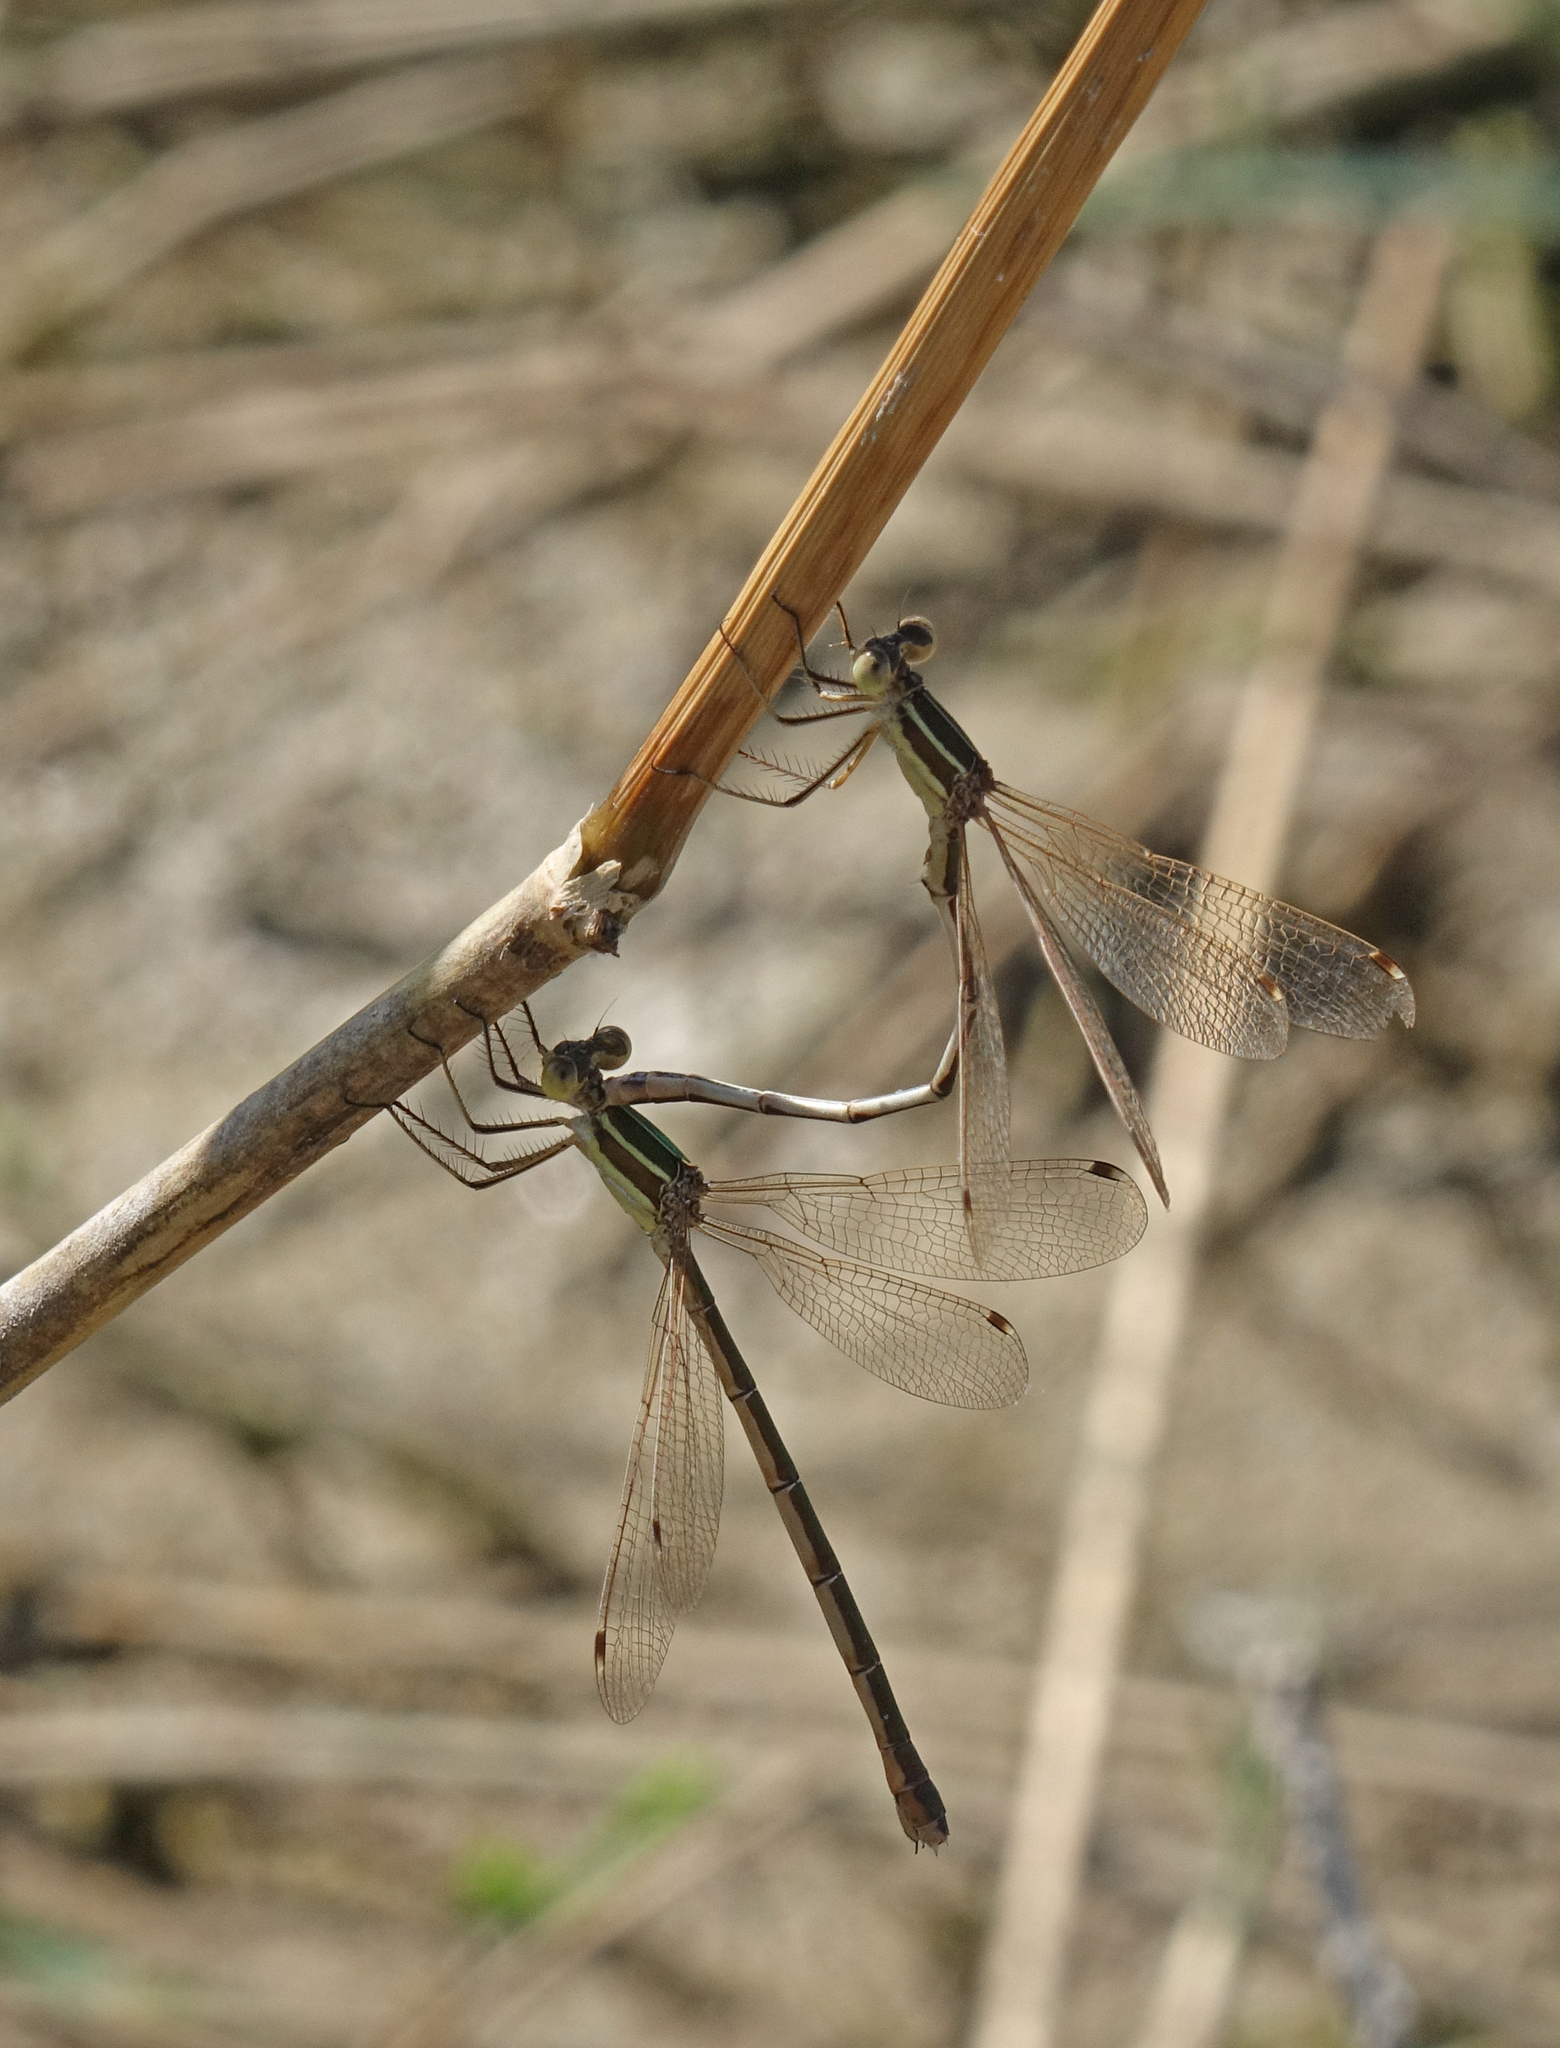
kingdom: Animalia
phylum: Arthropoda
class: Insecta
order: Odonata
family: Lestidae
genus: Lestes
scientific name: Lestes barbarus
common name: Migrant spreadwing
